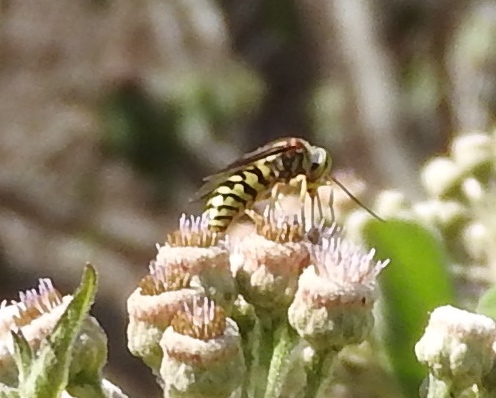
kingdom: Animalia
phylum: Arthropoda
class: Insecta
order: Hymenoptera
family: Crabronidae
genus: Steniolia
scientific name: Steniolia
